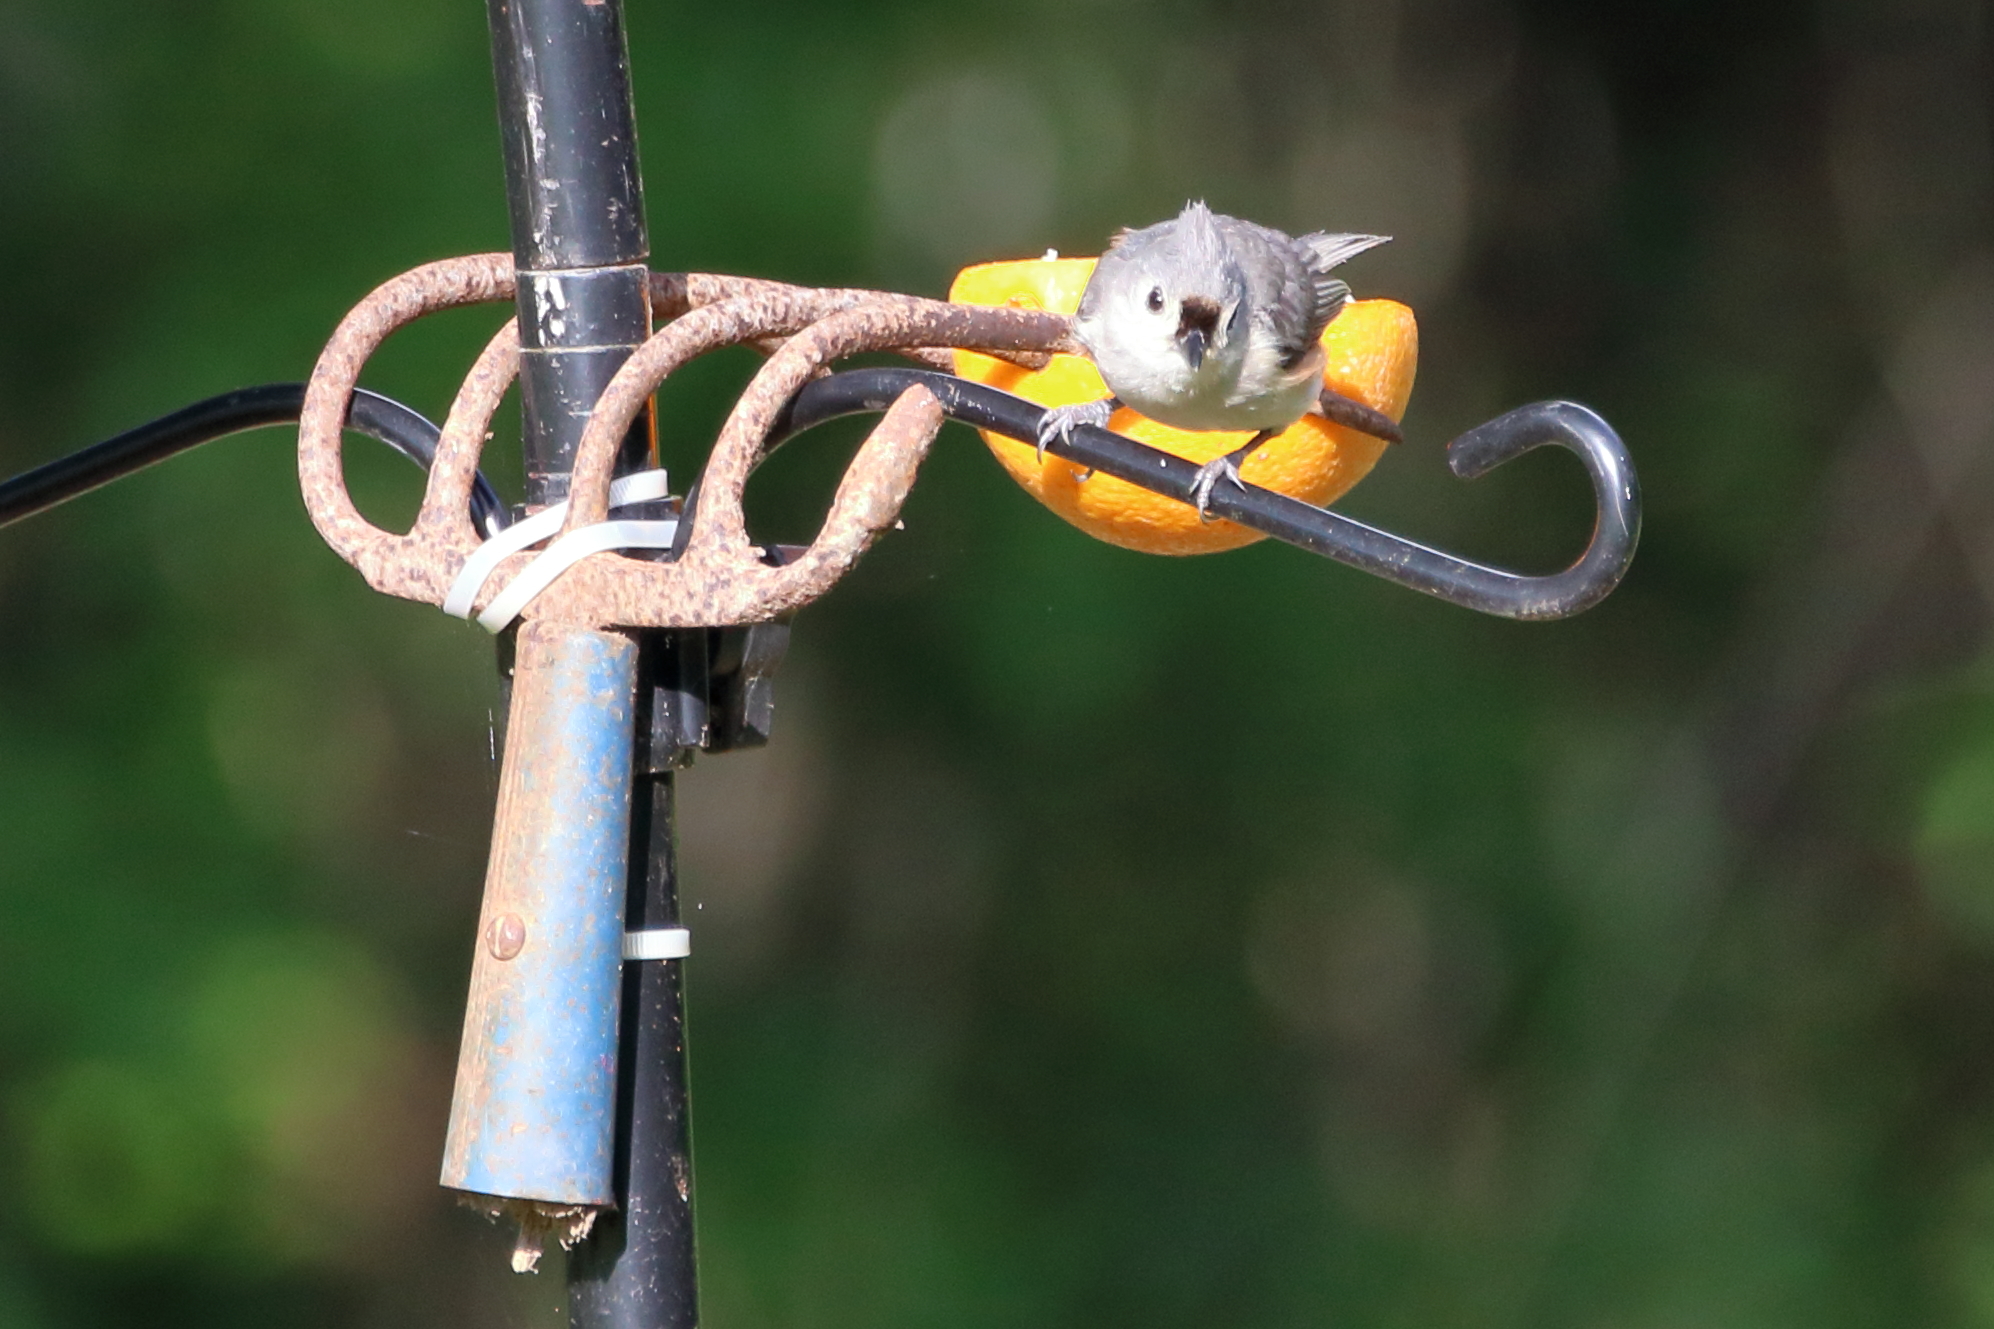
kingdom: Animalia
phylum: Chordata
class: Aves
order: Passeriformes
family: Paridae
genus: Baeolophus
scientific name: Baeolophus bicolor
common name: Tufted titmouse
